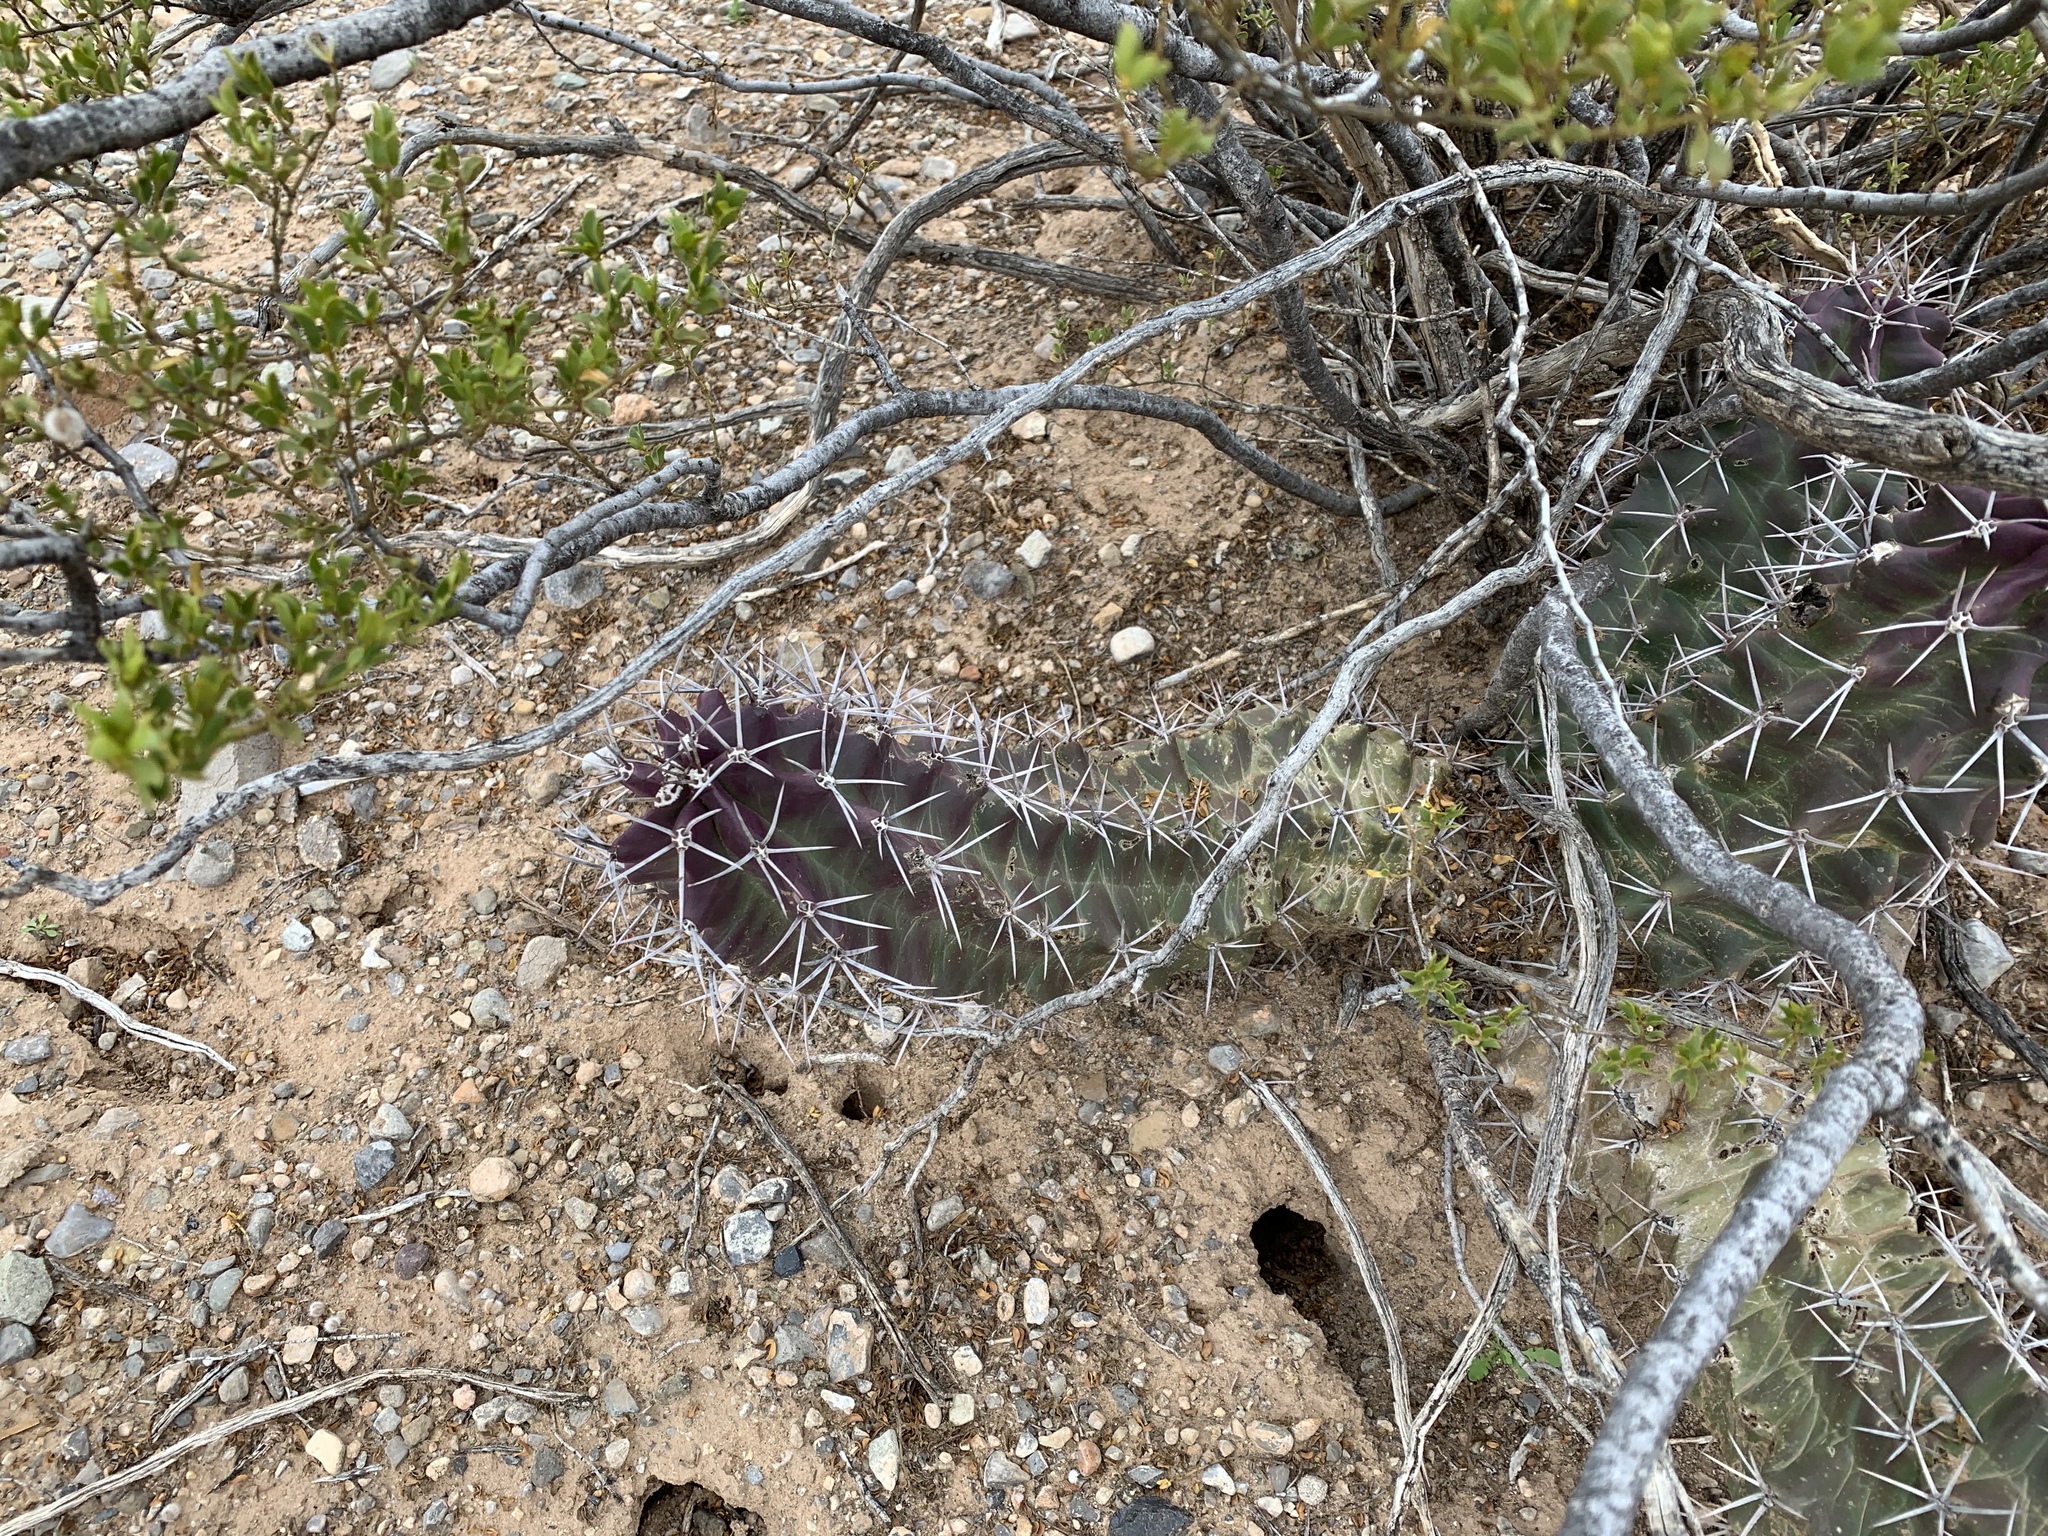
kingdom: Plantae
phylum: Tracheophyta
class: Magnoliopsida
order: Caryophyllales
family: Cactaceae
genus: Echinocereus
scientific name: Echinocereus triglochidiatus
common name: Claretcup hedgehog
